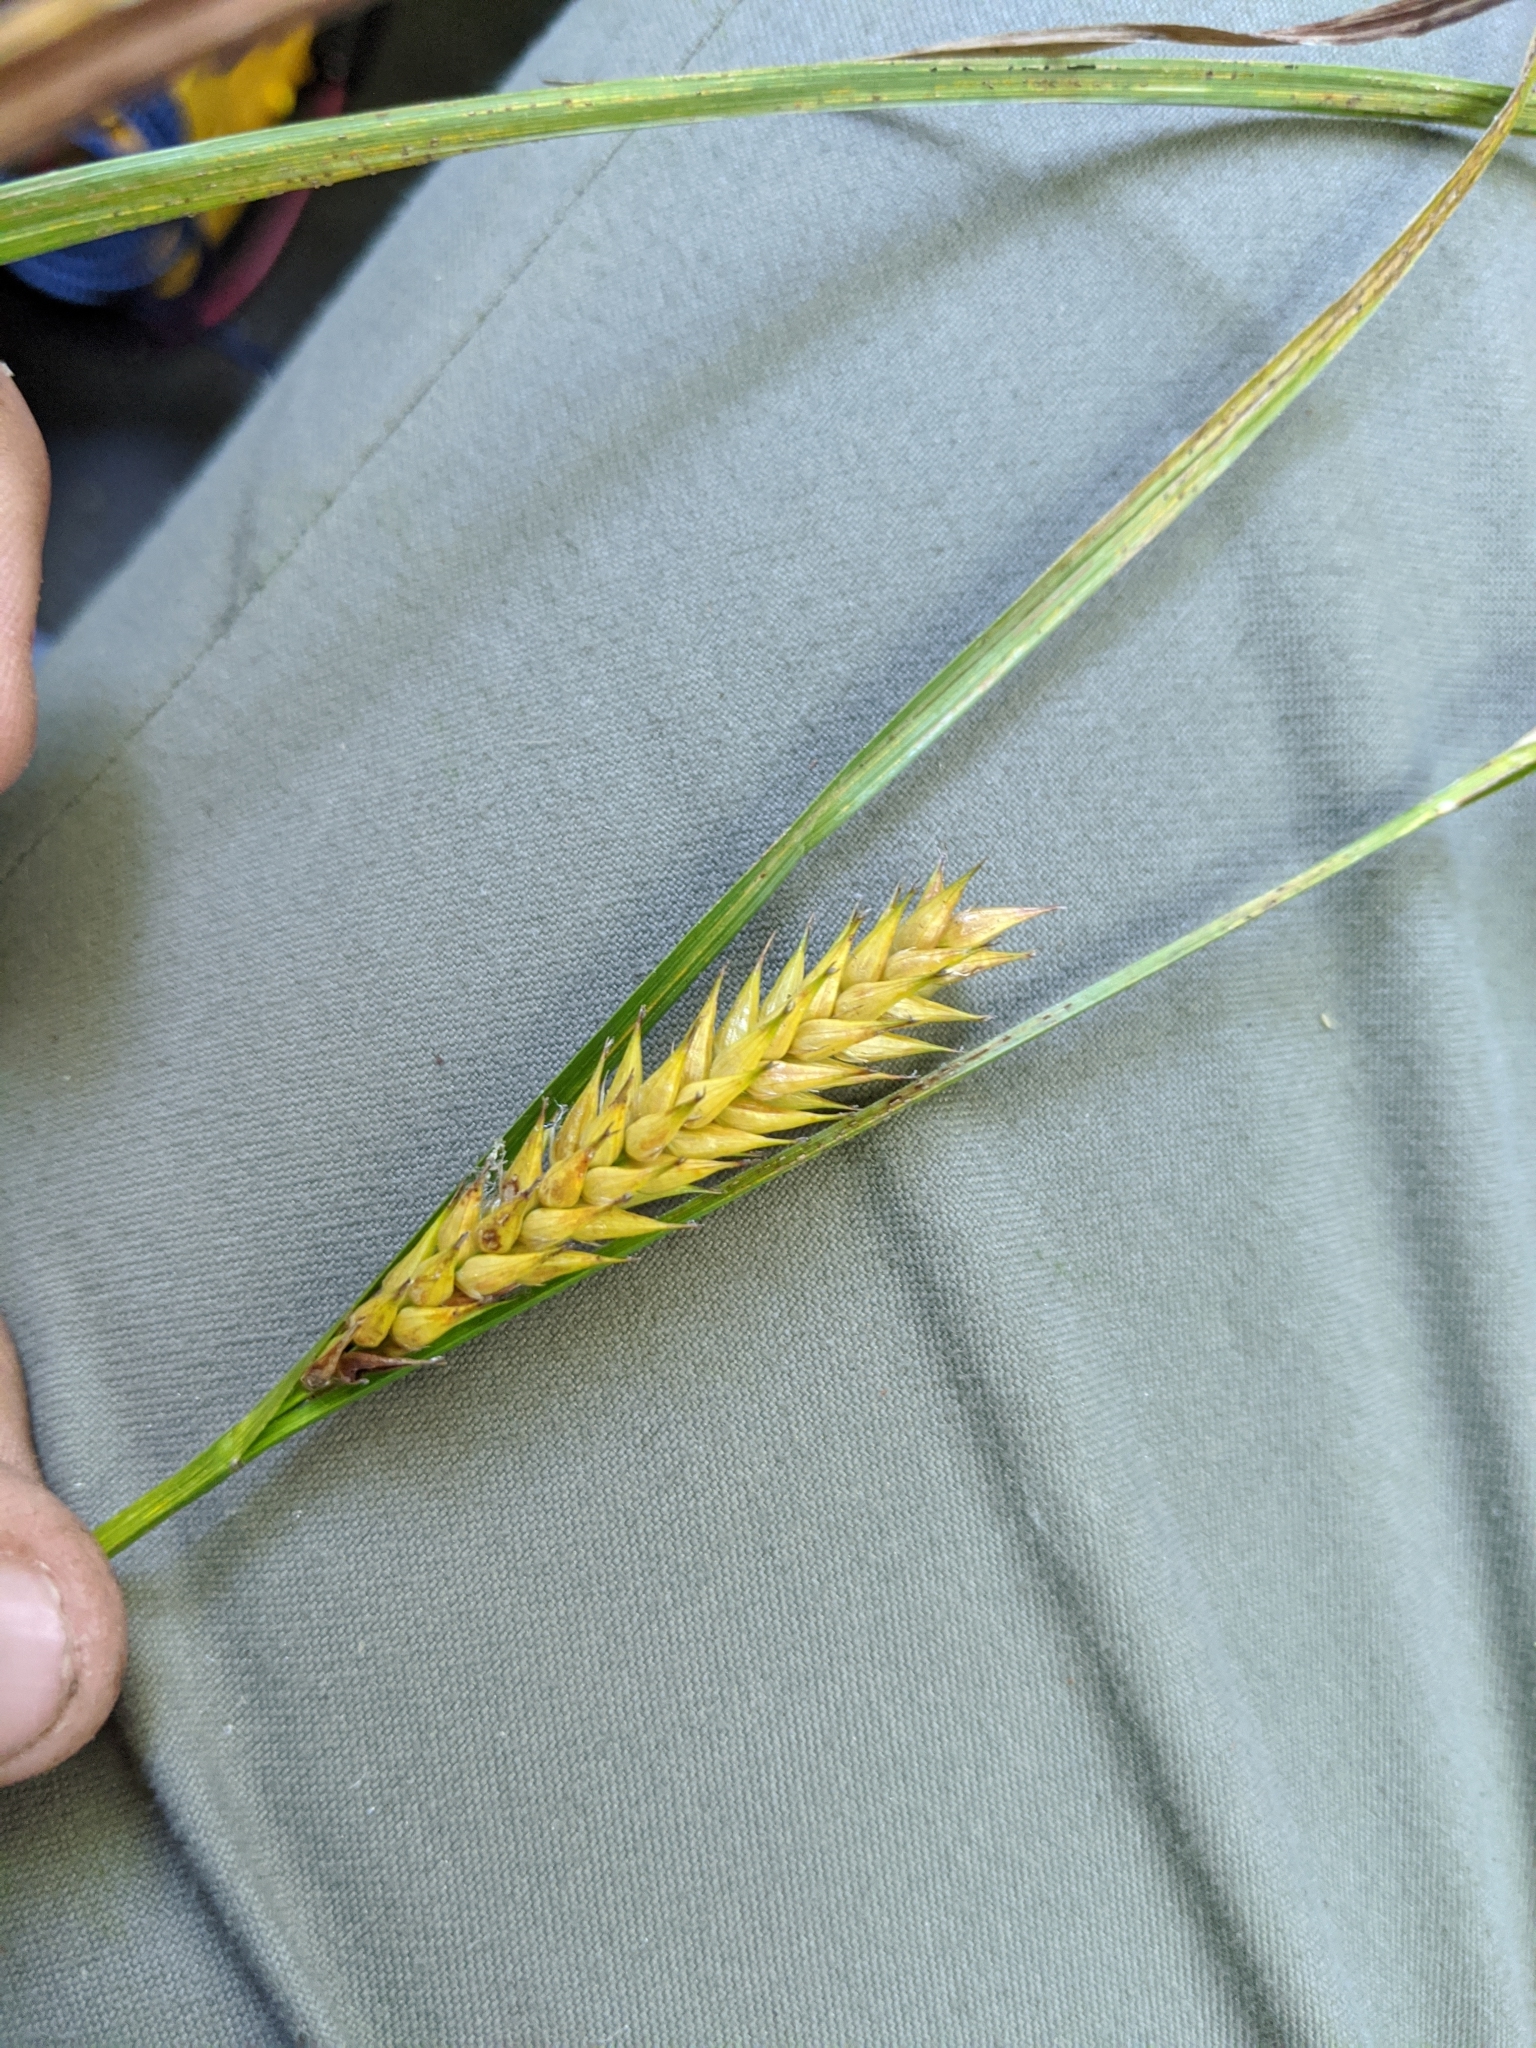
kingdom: Plantae
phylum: Tracheophyta
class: Liliopsida
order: Poales
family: Cyperaceae
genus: Carex
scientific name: Carex exsiccata
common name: Beaked sedge
